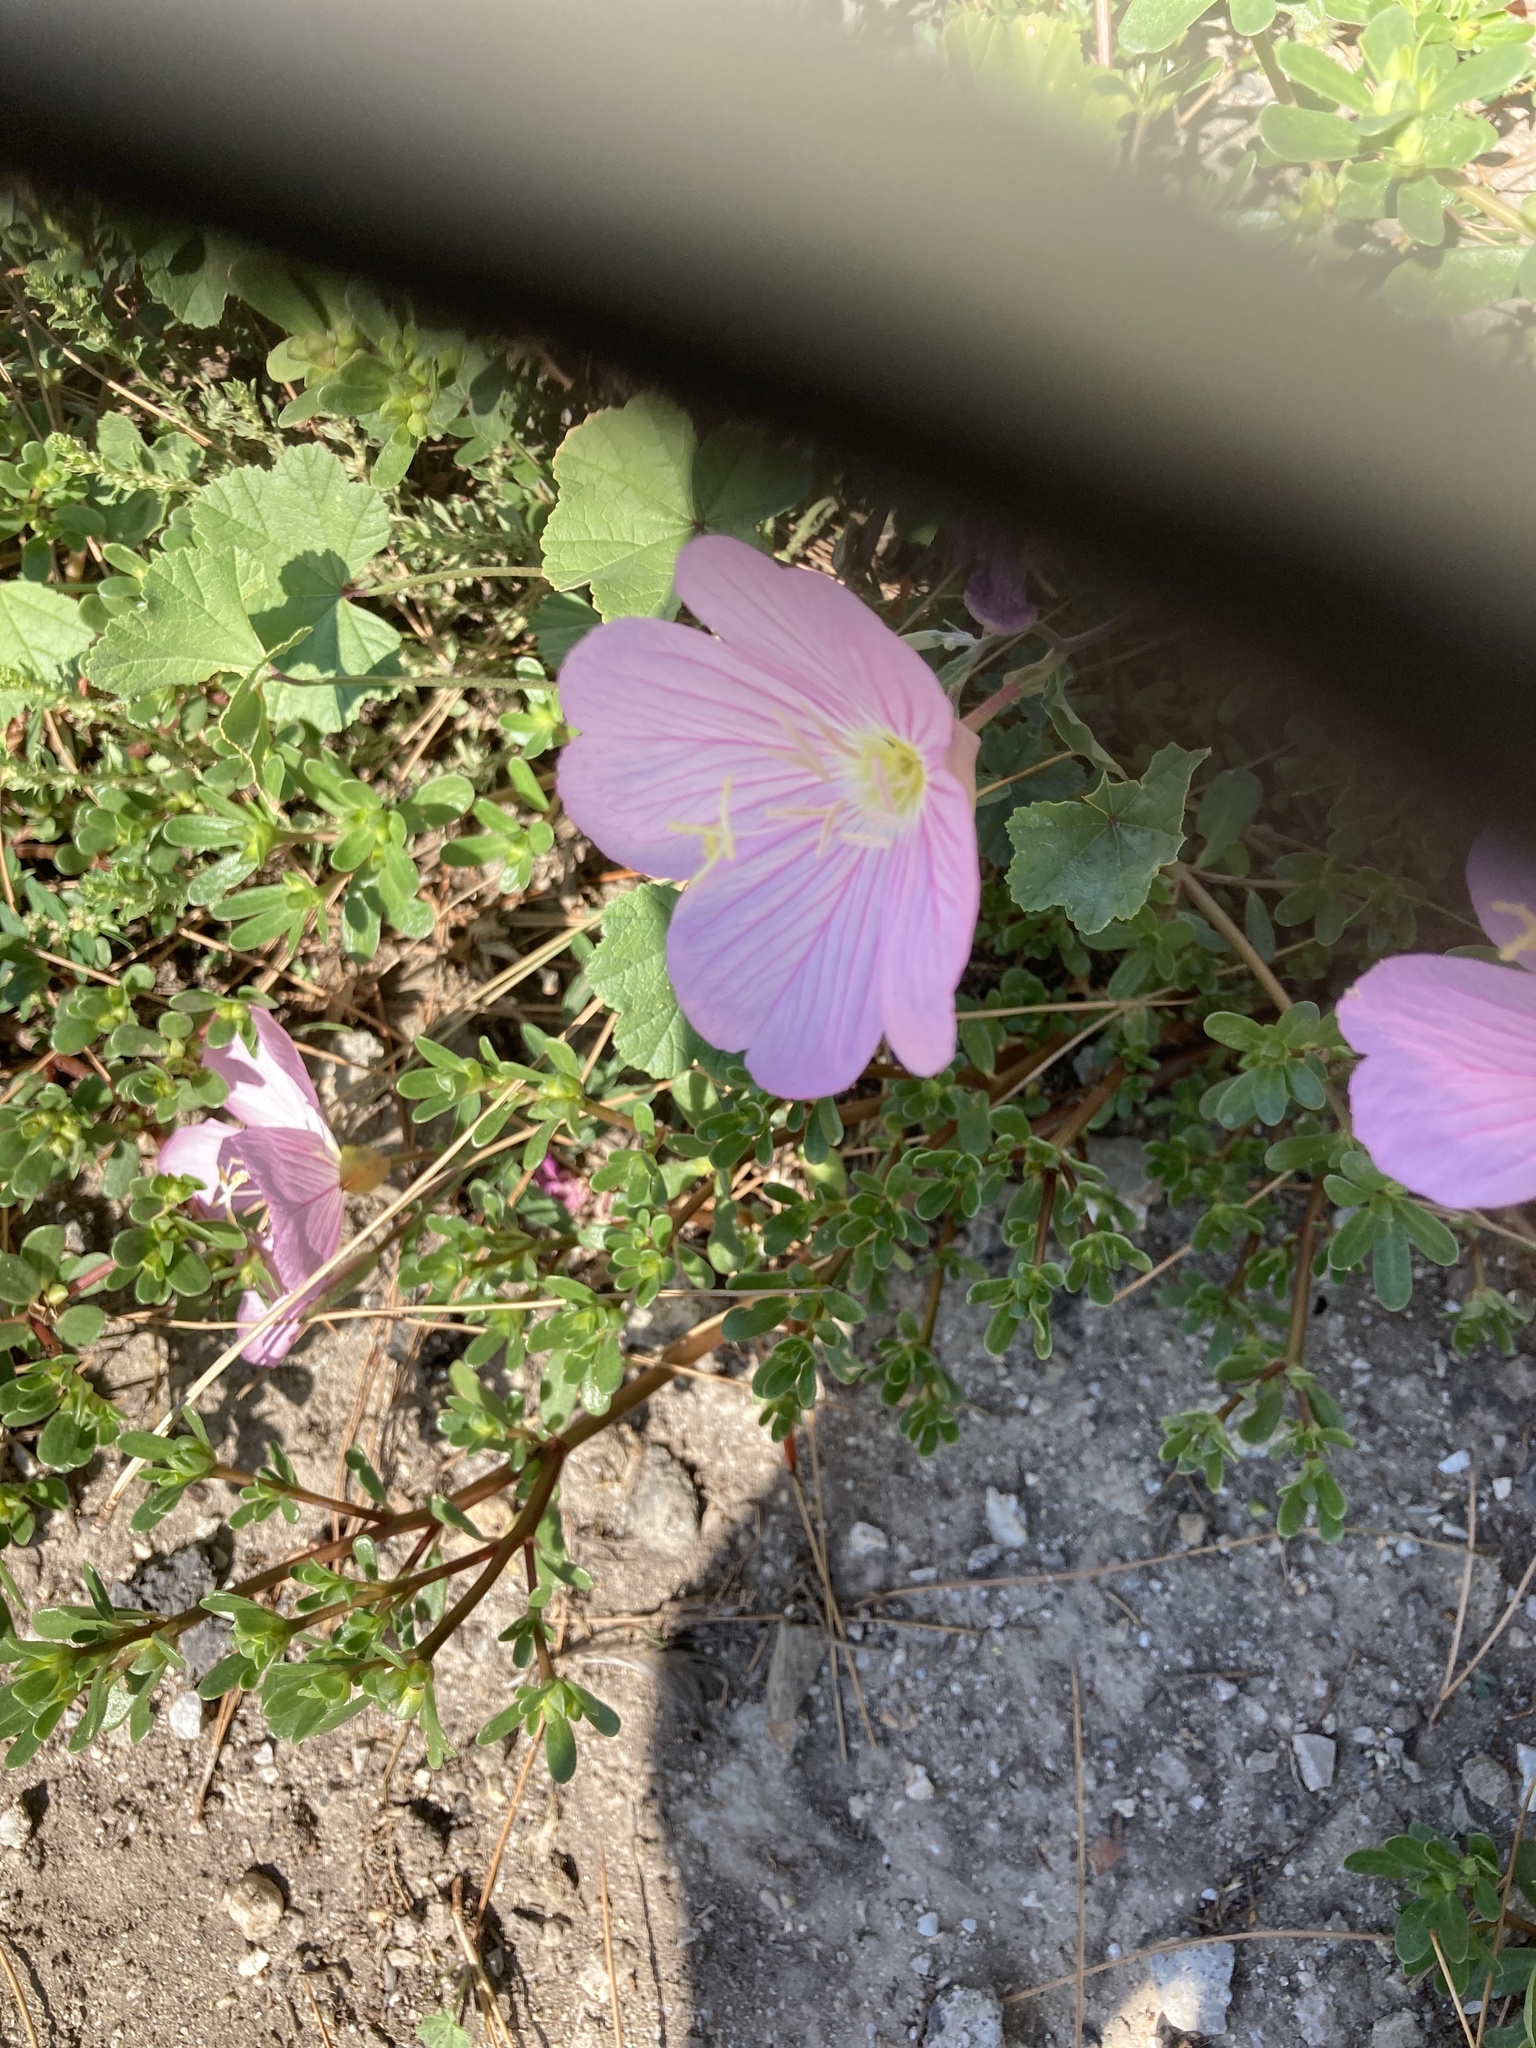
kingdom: Plantae
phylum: Tracheophyta
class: Magnoliopsida
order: Myrtales
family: Onagraceae
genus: Oenothera
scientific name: Oenothera speciosa
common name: White evening-primrose
